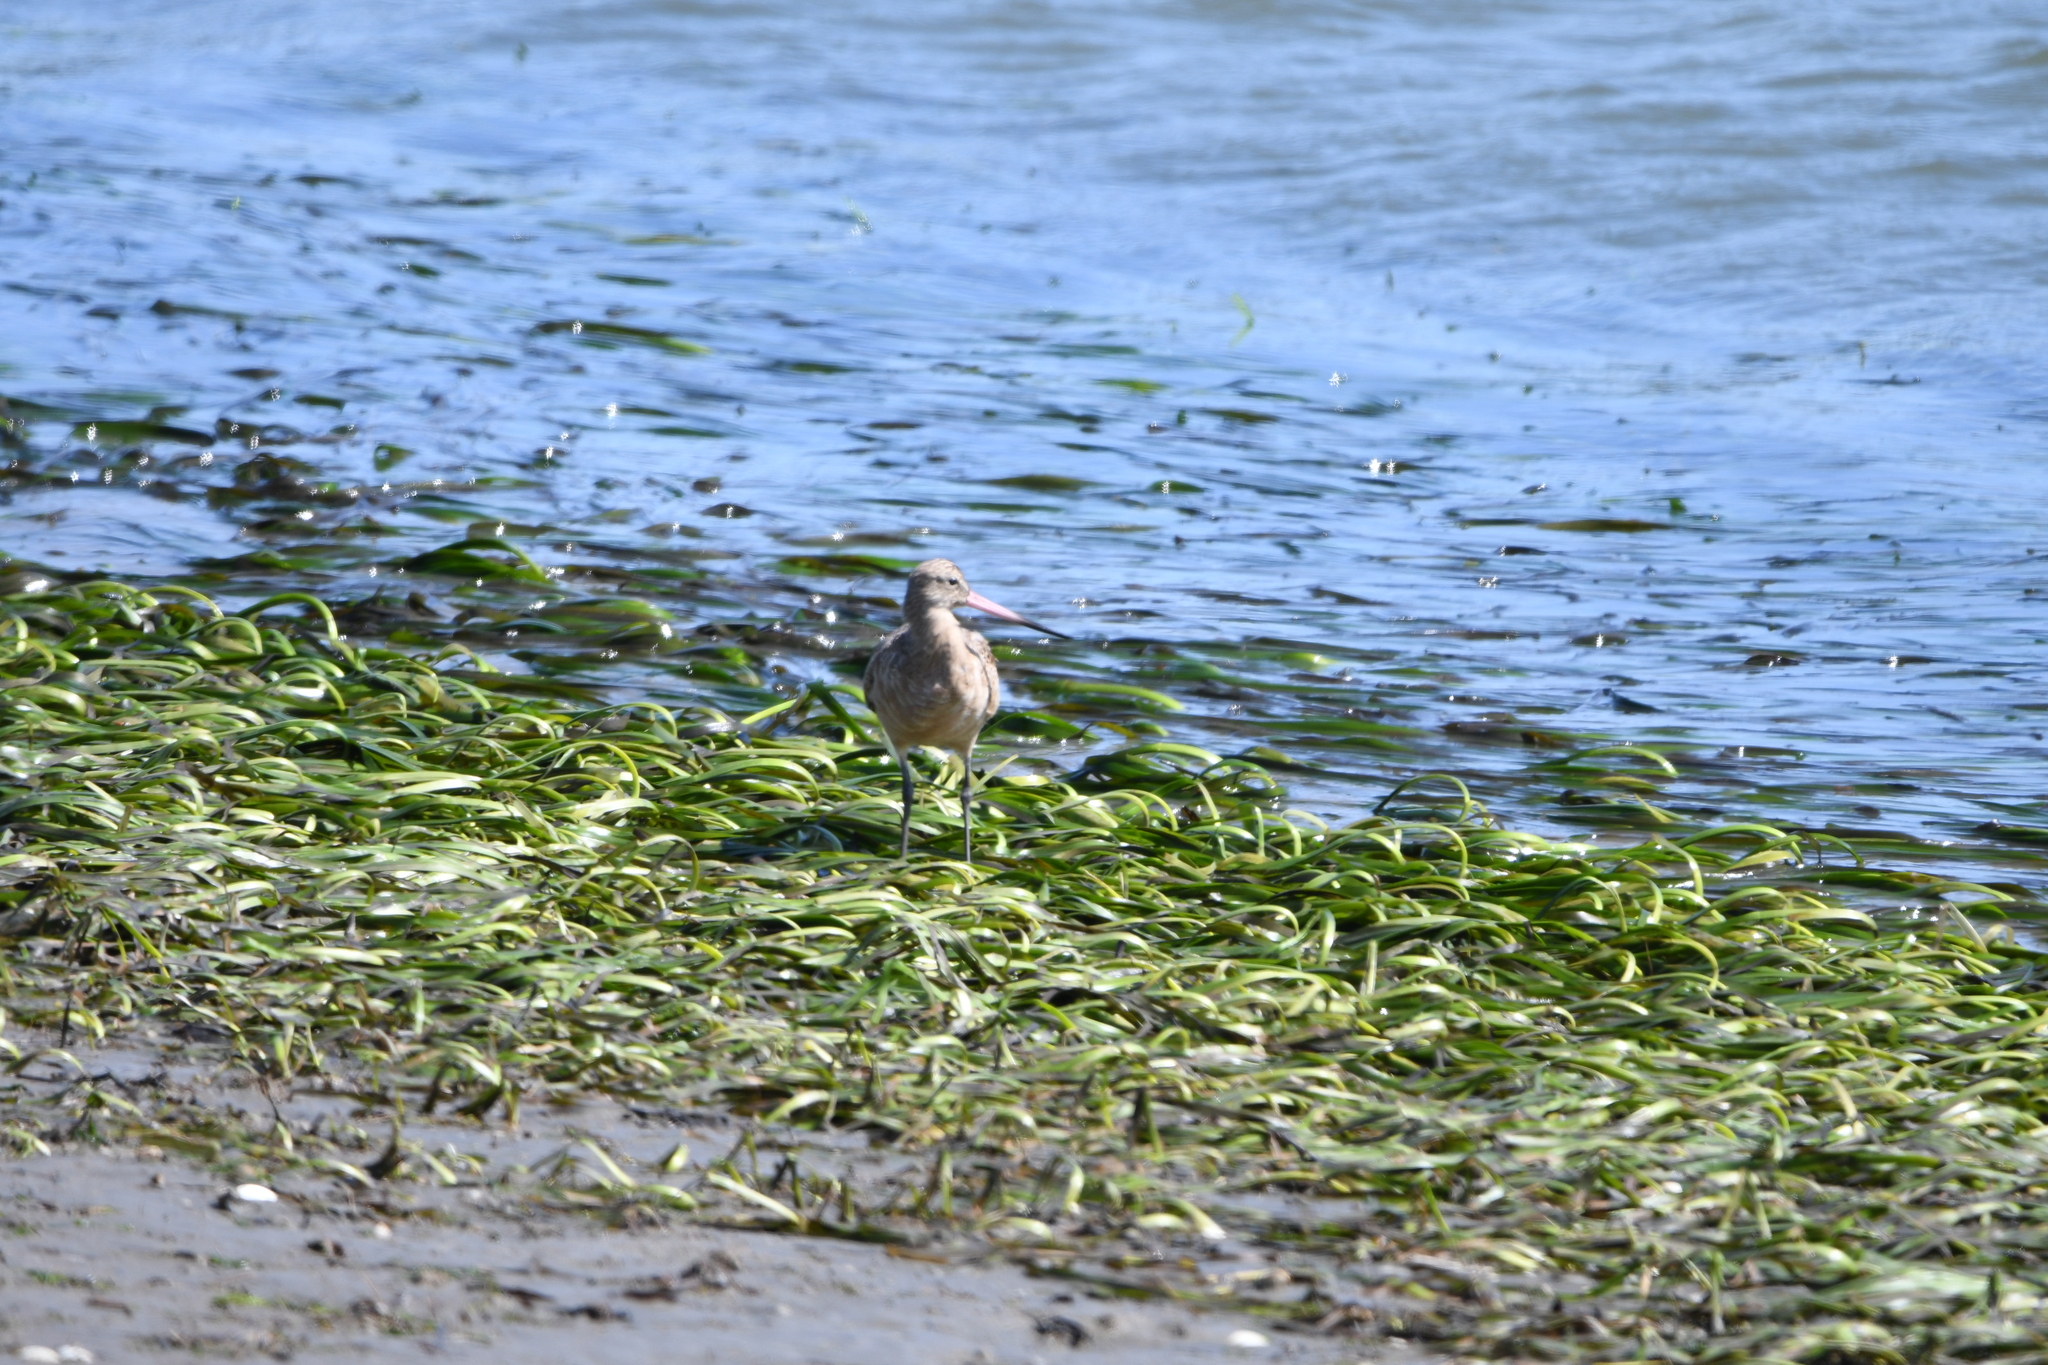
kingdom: Animalia
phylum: Chordata
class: Aves
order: Charadriiformes
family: Scolopacidae
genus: Limosa
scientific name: Limosa fedoa
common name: Marbled godwit
